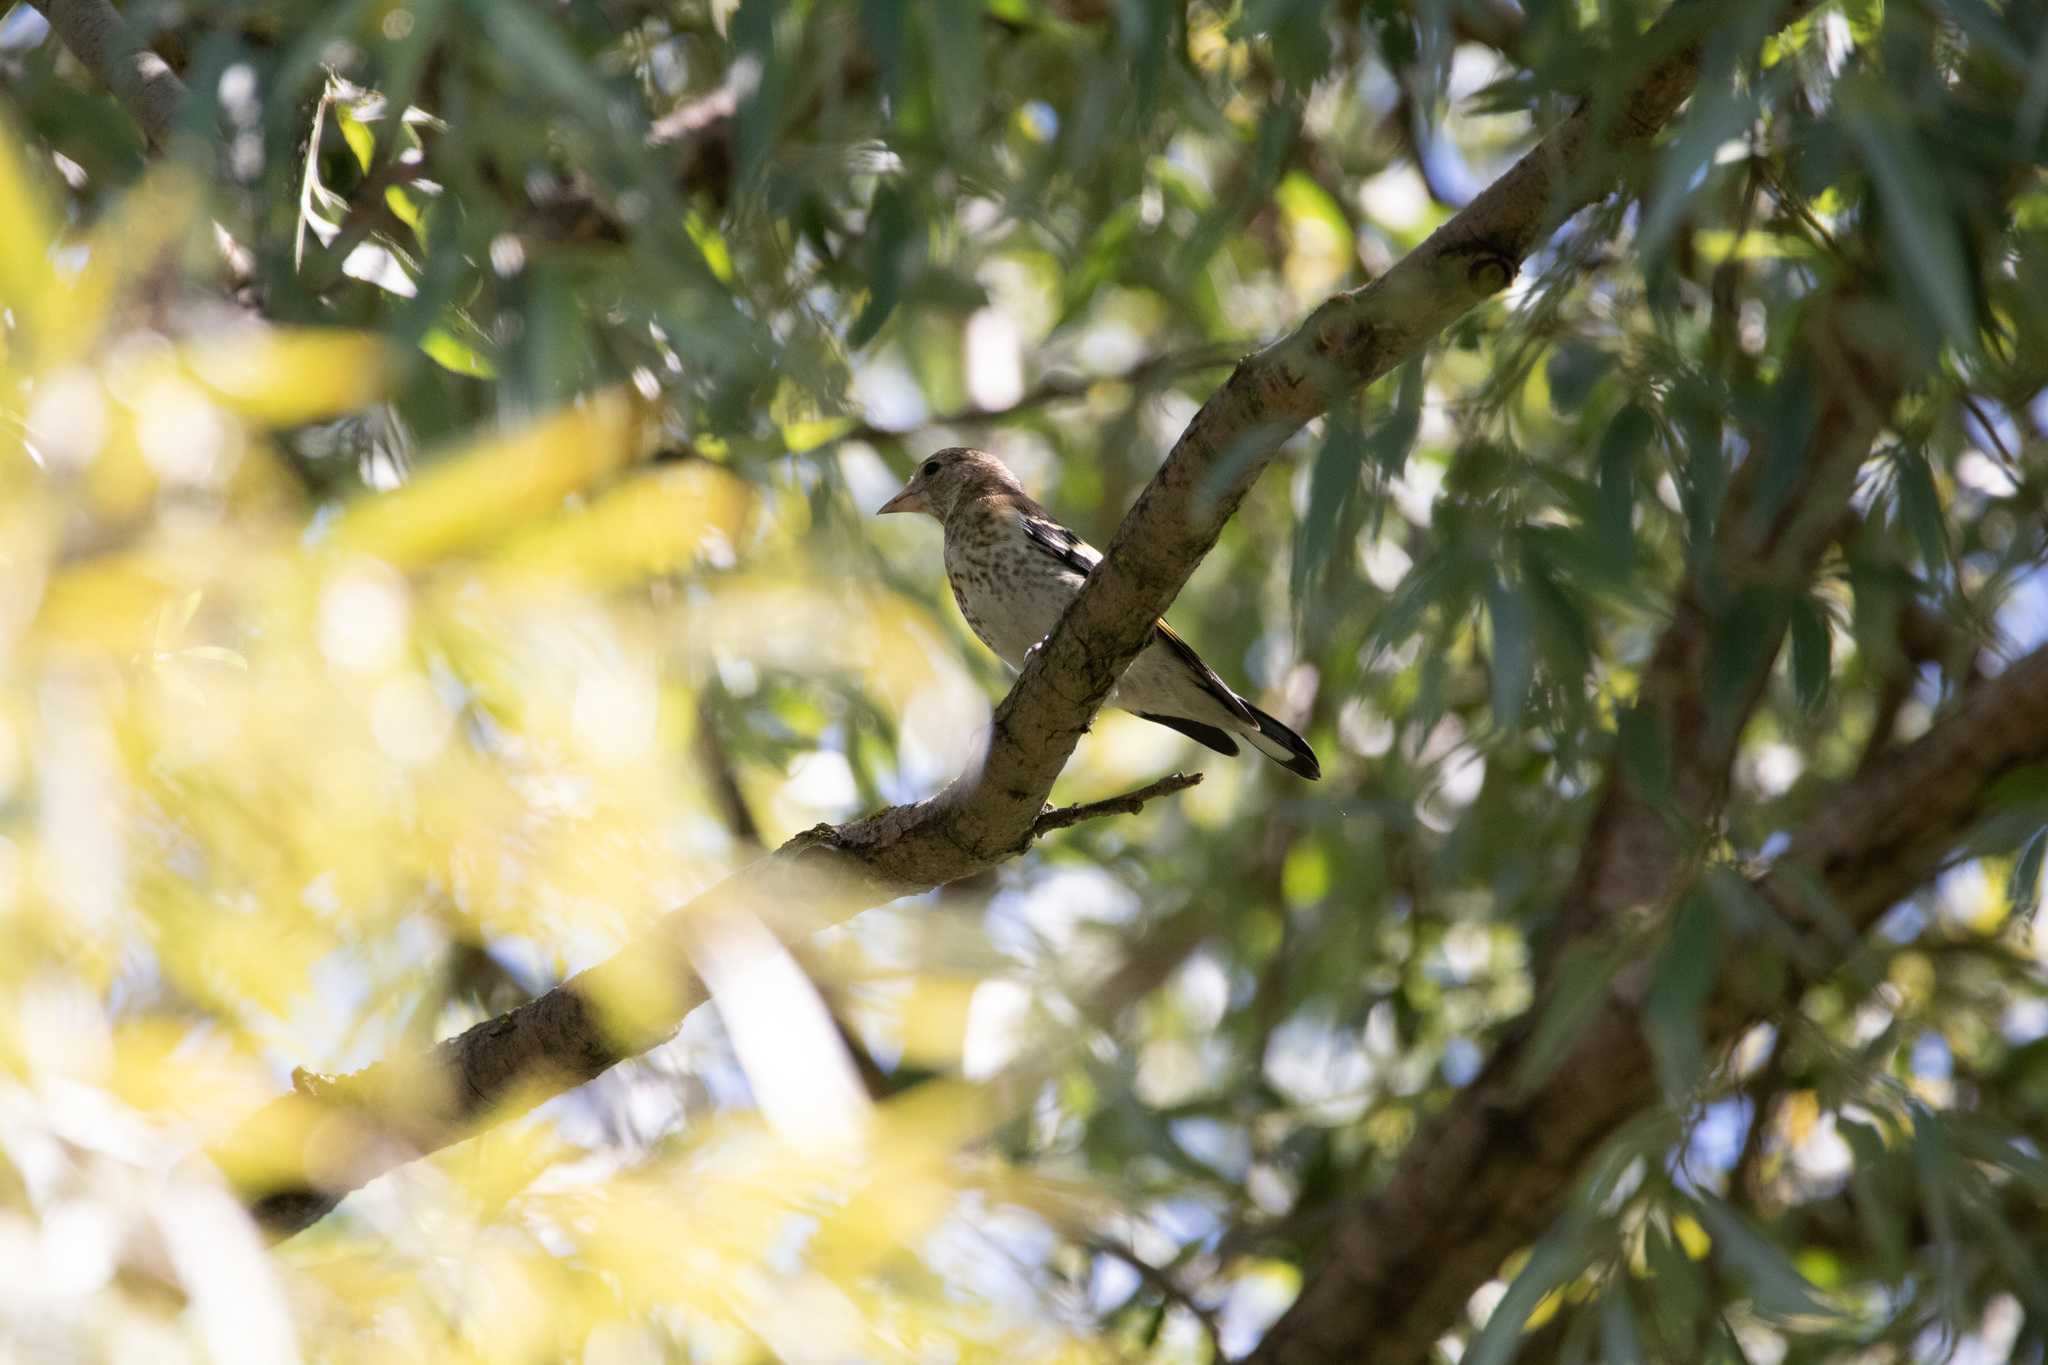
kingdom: Animalia
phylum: Chordata
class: Aves
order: Passeriformes
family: Fringillidae
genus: Carduelis
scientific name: Carduelis carduelis
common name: European goldfinch
